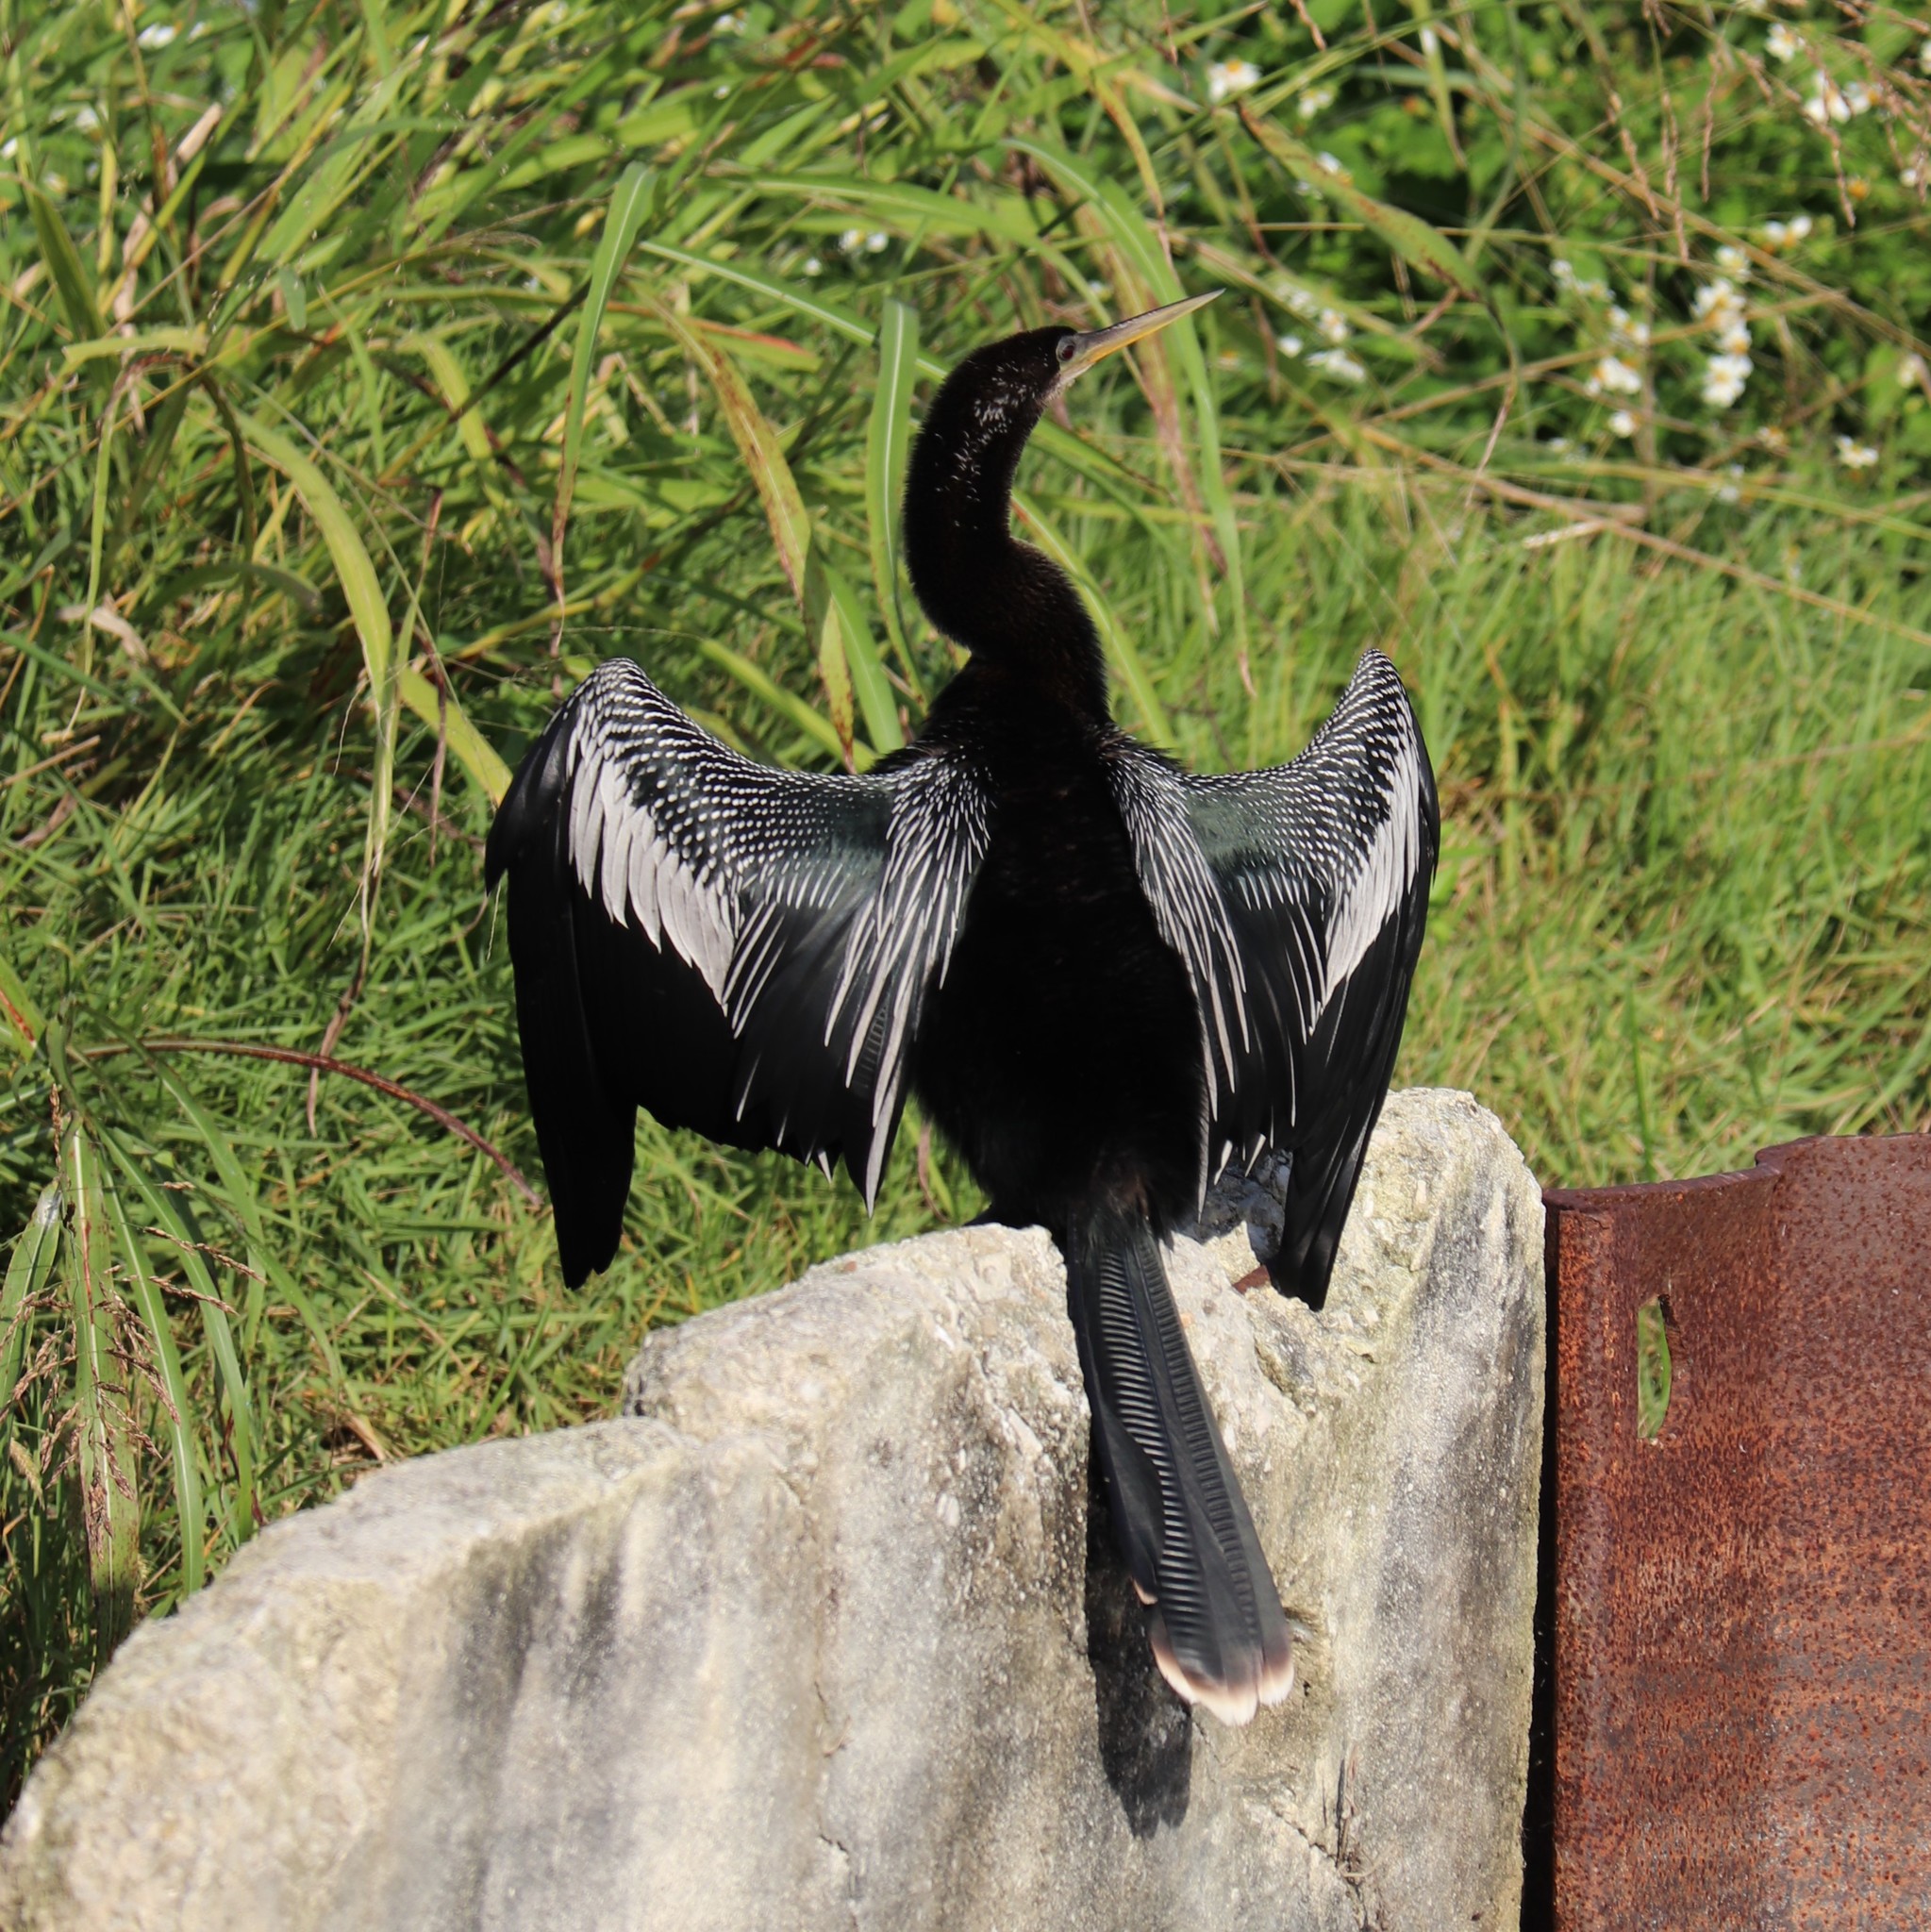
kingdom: Animalia
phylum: Chordata
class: Aves
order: Suliformes
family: Anhingidae
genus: Anhinga
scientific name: Anhinga anhinga
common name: Anhinga
